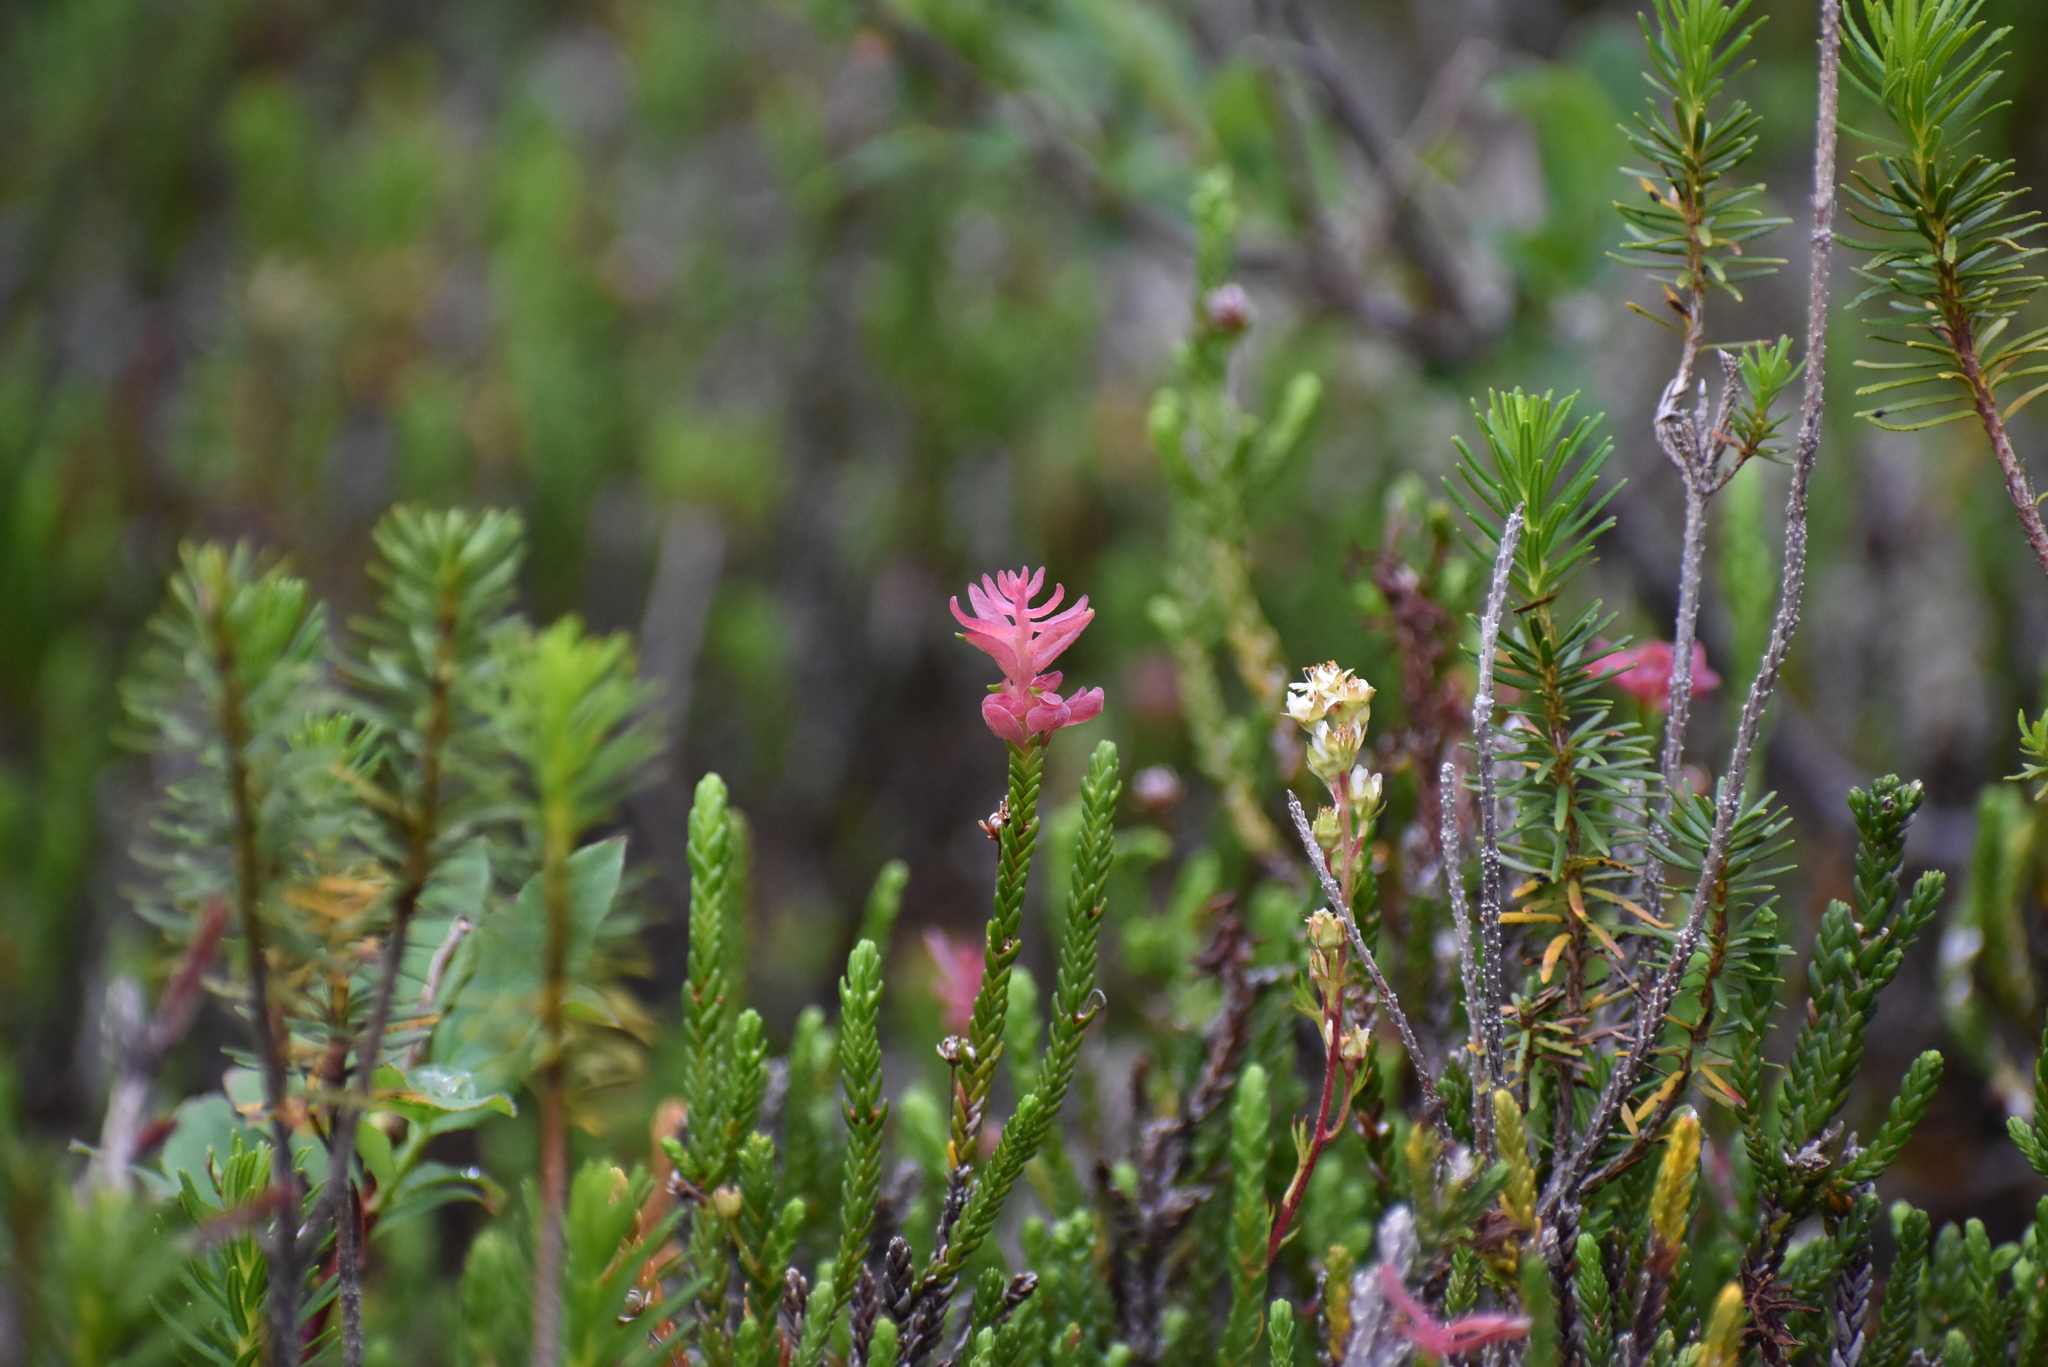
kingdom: Plantae
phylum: Tracheophyta
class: Magnoliopsida
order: Ericales
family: Ericaceae
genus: Cassiope
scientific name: Cassiope mertensiana
